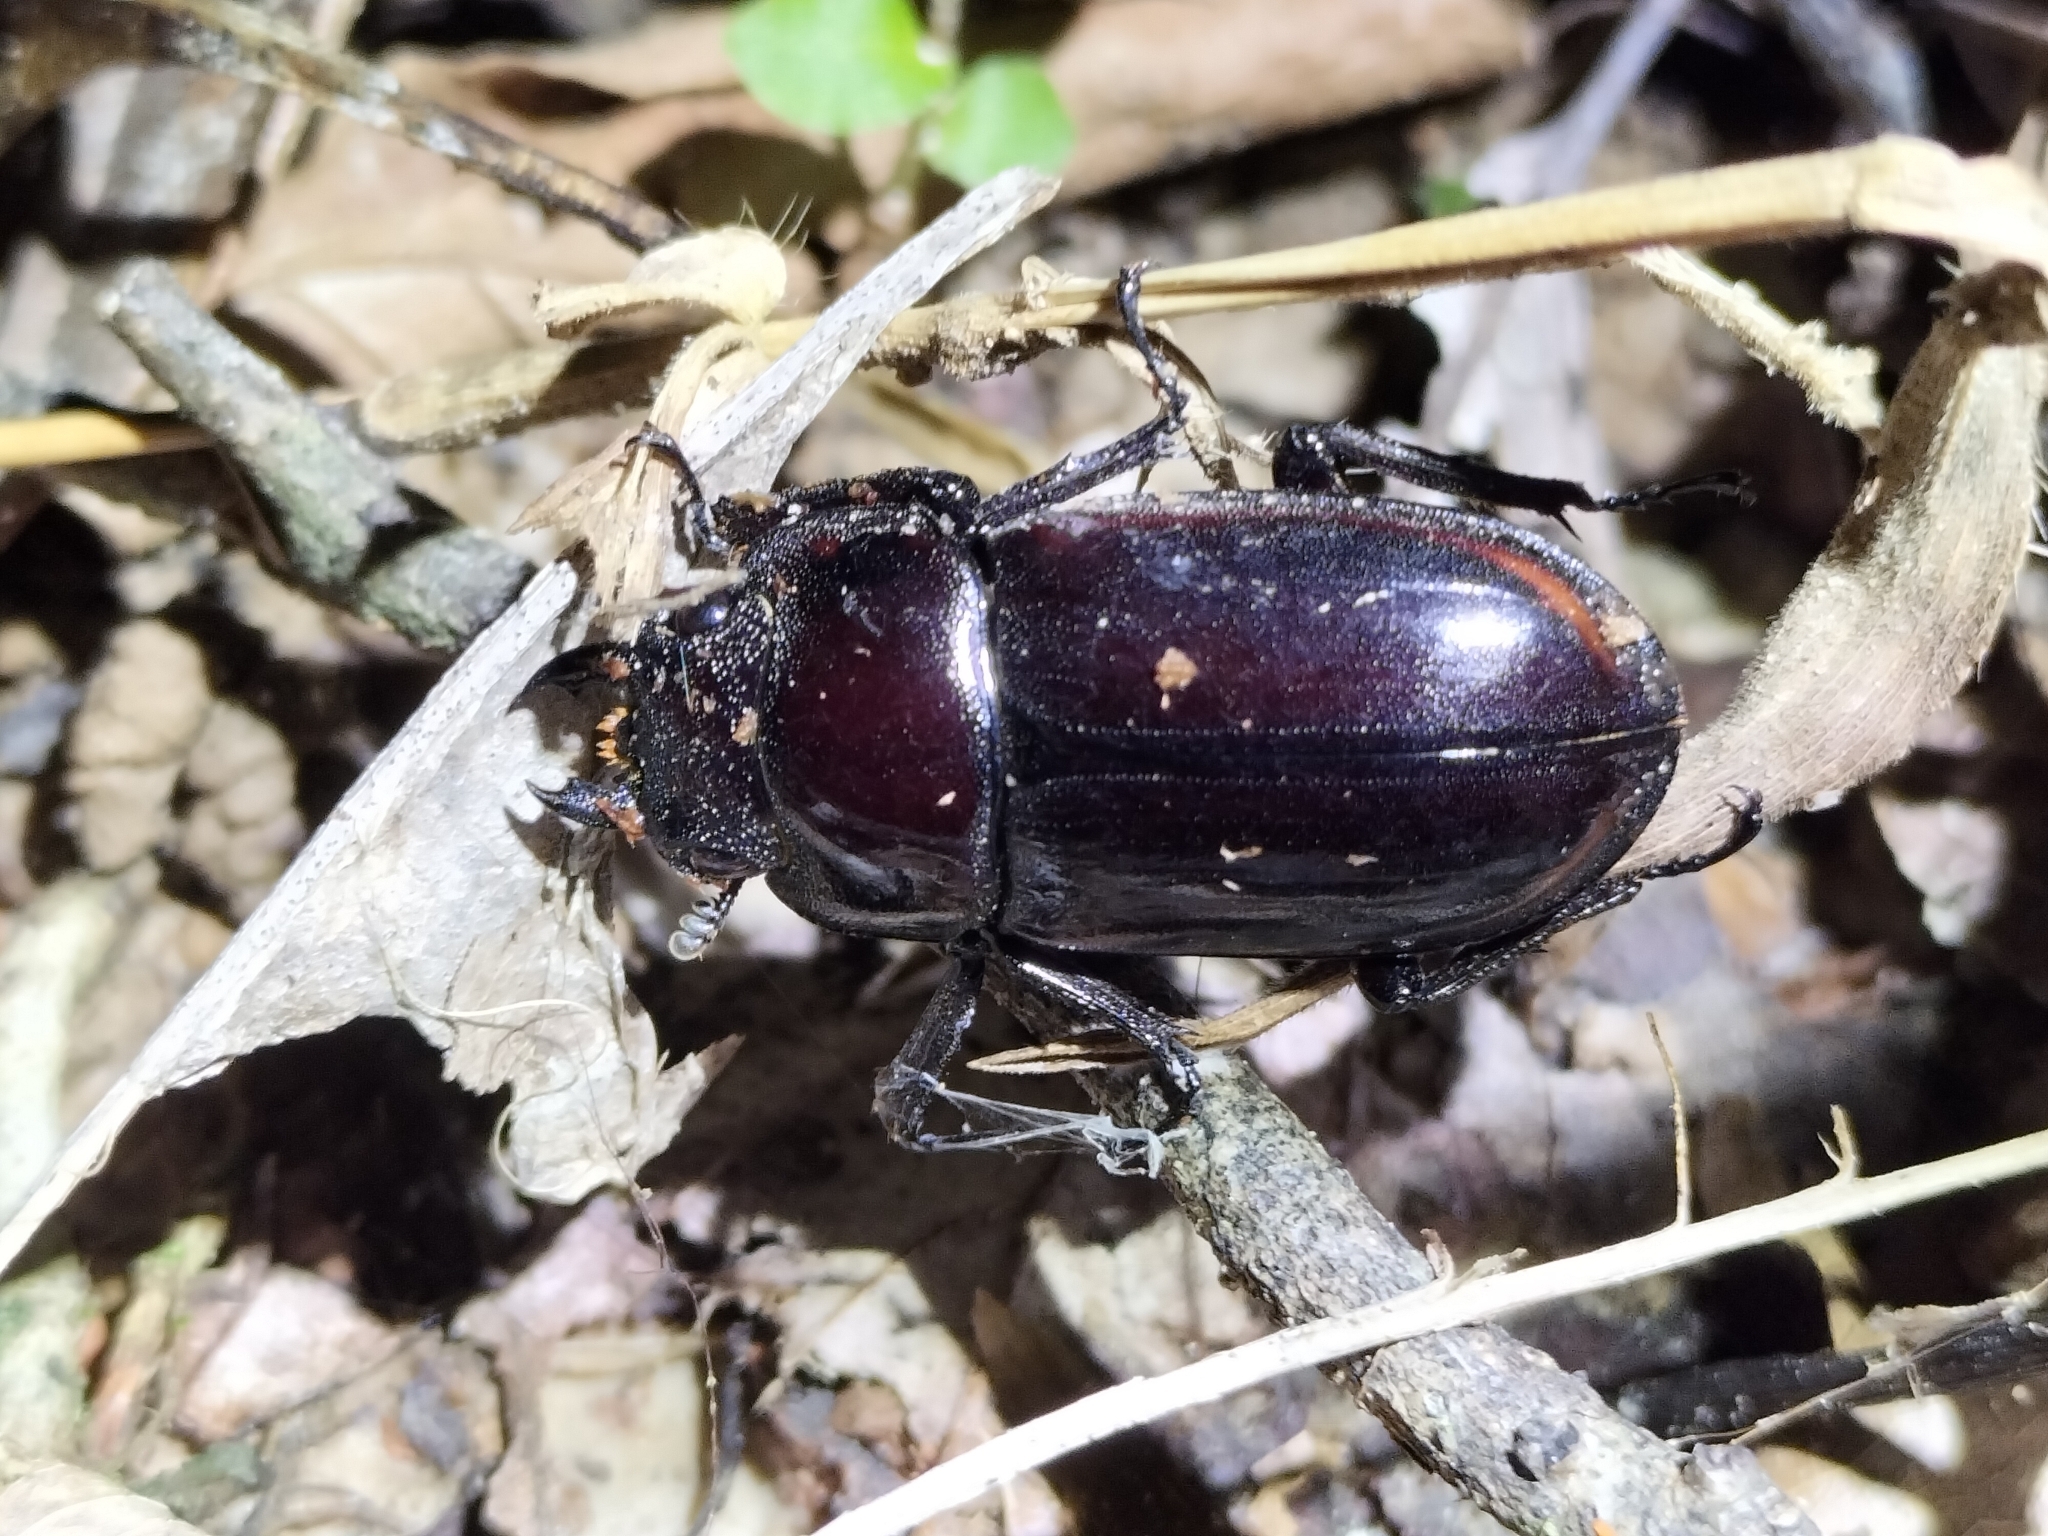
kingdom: Animalia
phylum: Arthropoda
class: Insecta
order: Coleoptera
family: Lucanidae
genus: Prosopocoilus
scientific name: Prosopocoilus torresensis
